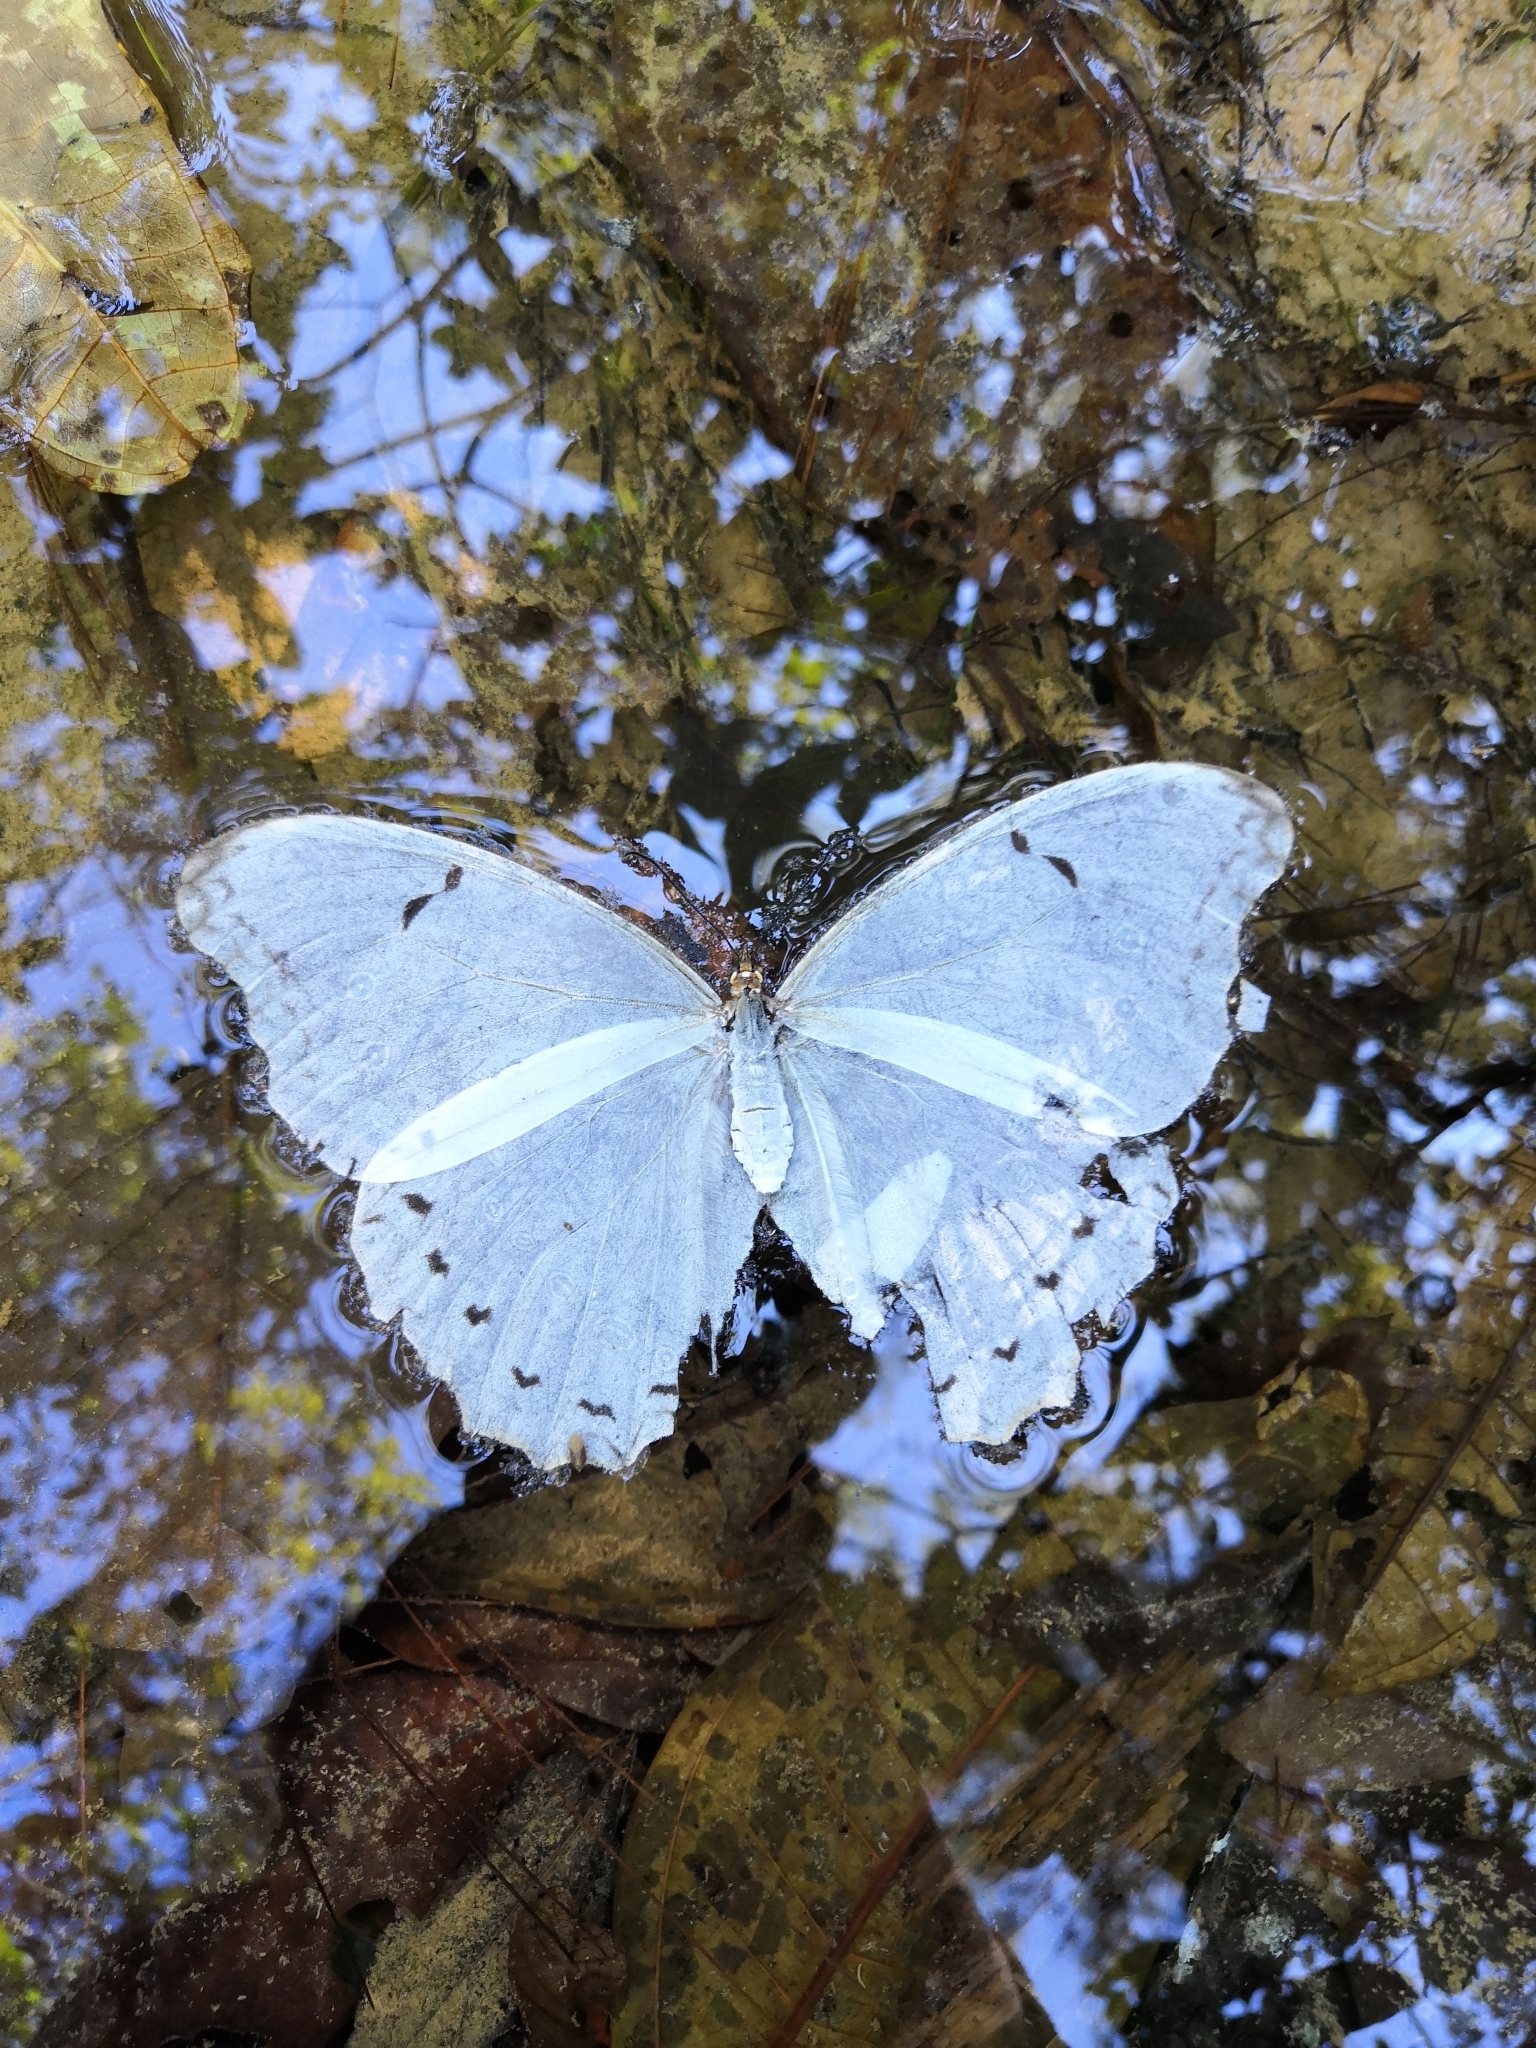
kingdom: Animalia
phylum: Arthropoda
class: Insecta
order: Lepidoptera
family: Nymphalidae
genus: Morpho
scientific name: Morpho polyphemus
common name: White morpho
